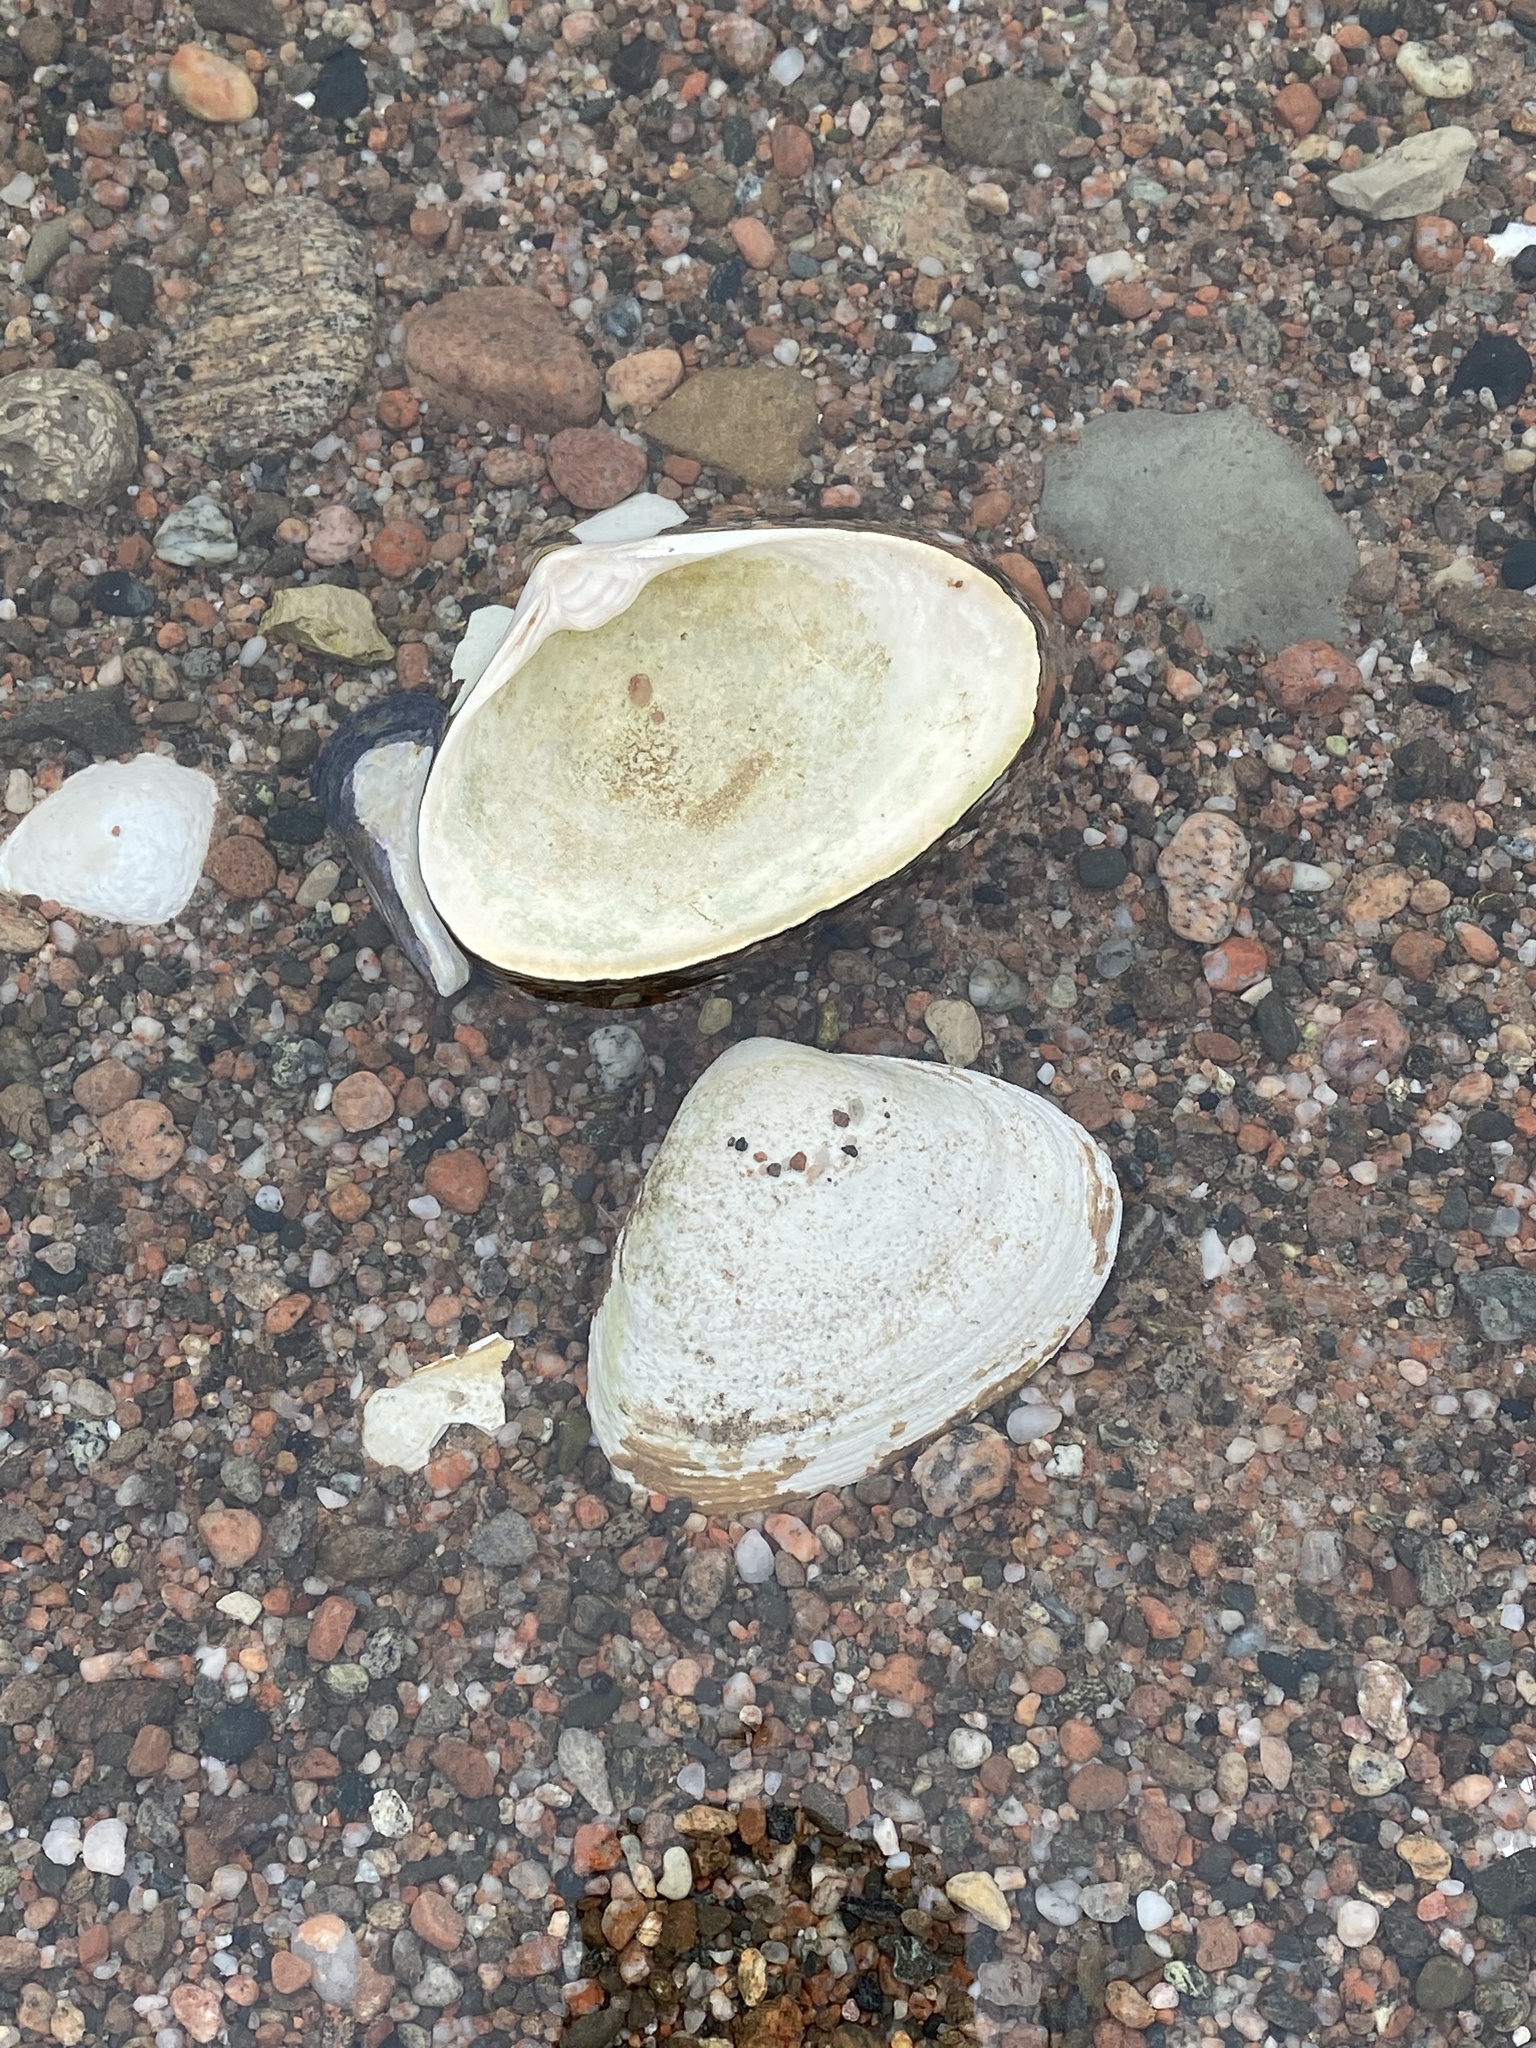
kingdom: Animalia
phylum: Mollusca
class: Bivalvia
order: Venerida
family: Mactridae
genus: Spisula
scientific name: Spisula solidissima
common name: Atlantic surf clam
